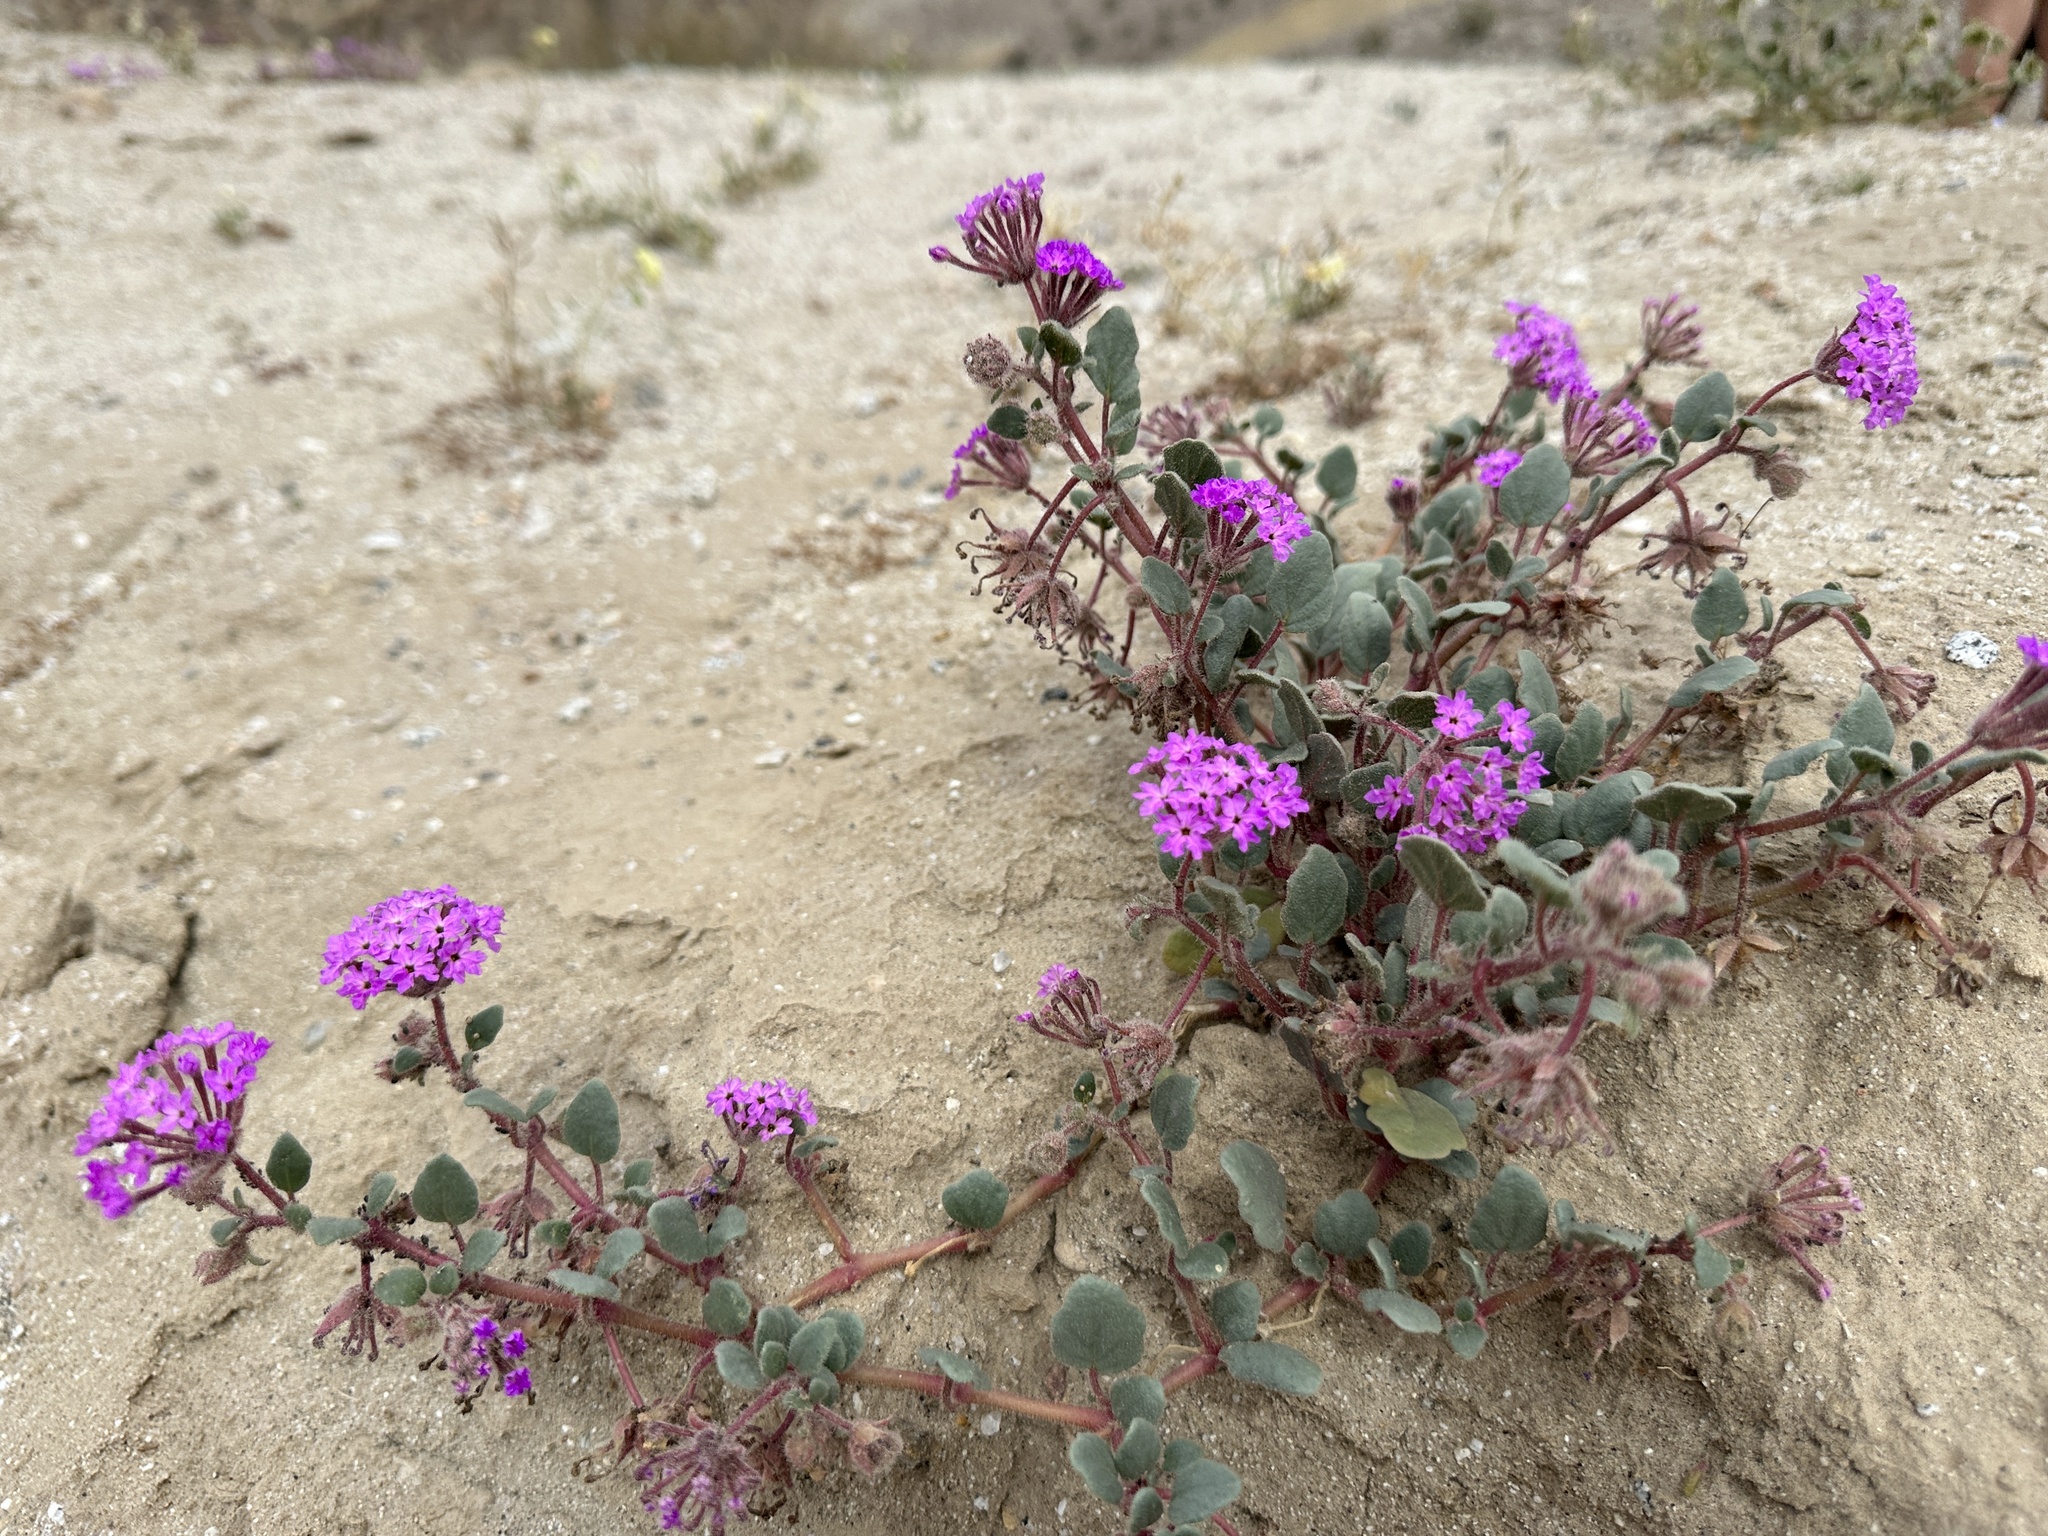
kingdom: Plantae
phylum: Tracheophyta
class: Magnoliopsida
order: Caryophyllales
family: Nyctaginaceae
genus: Abronia
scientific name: Abronia villosa
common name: Desert sand-verbena
